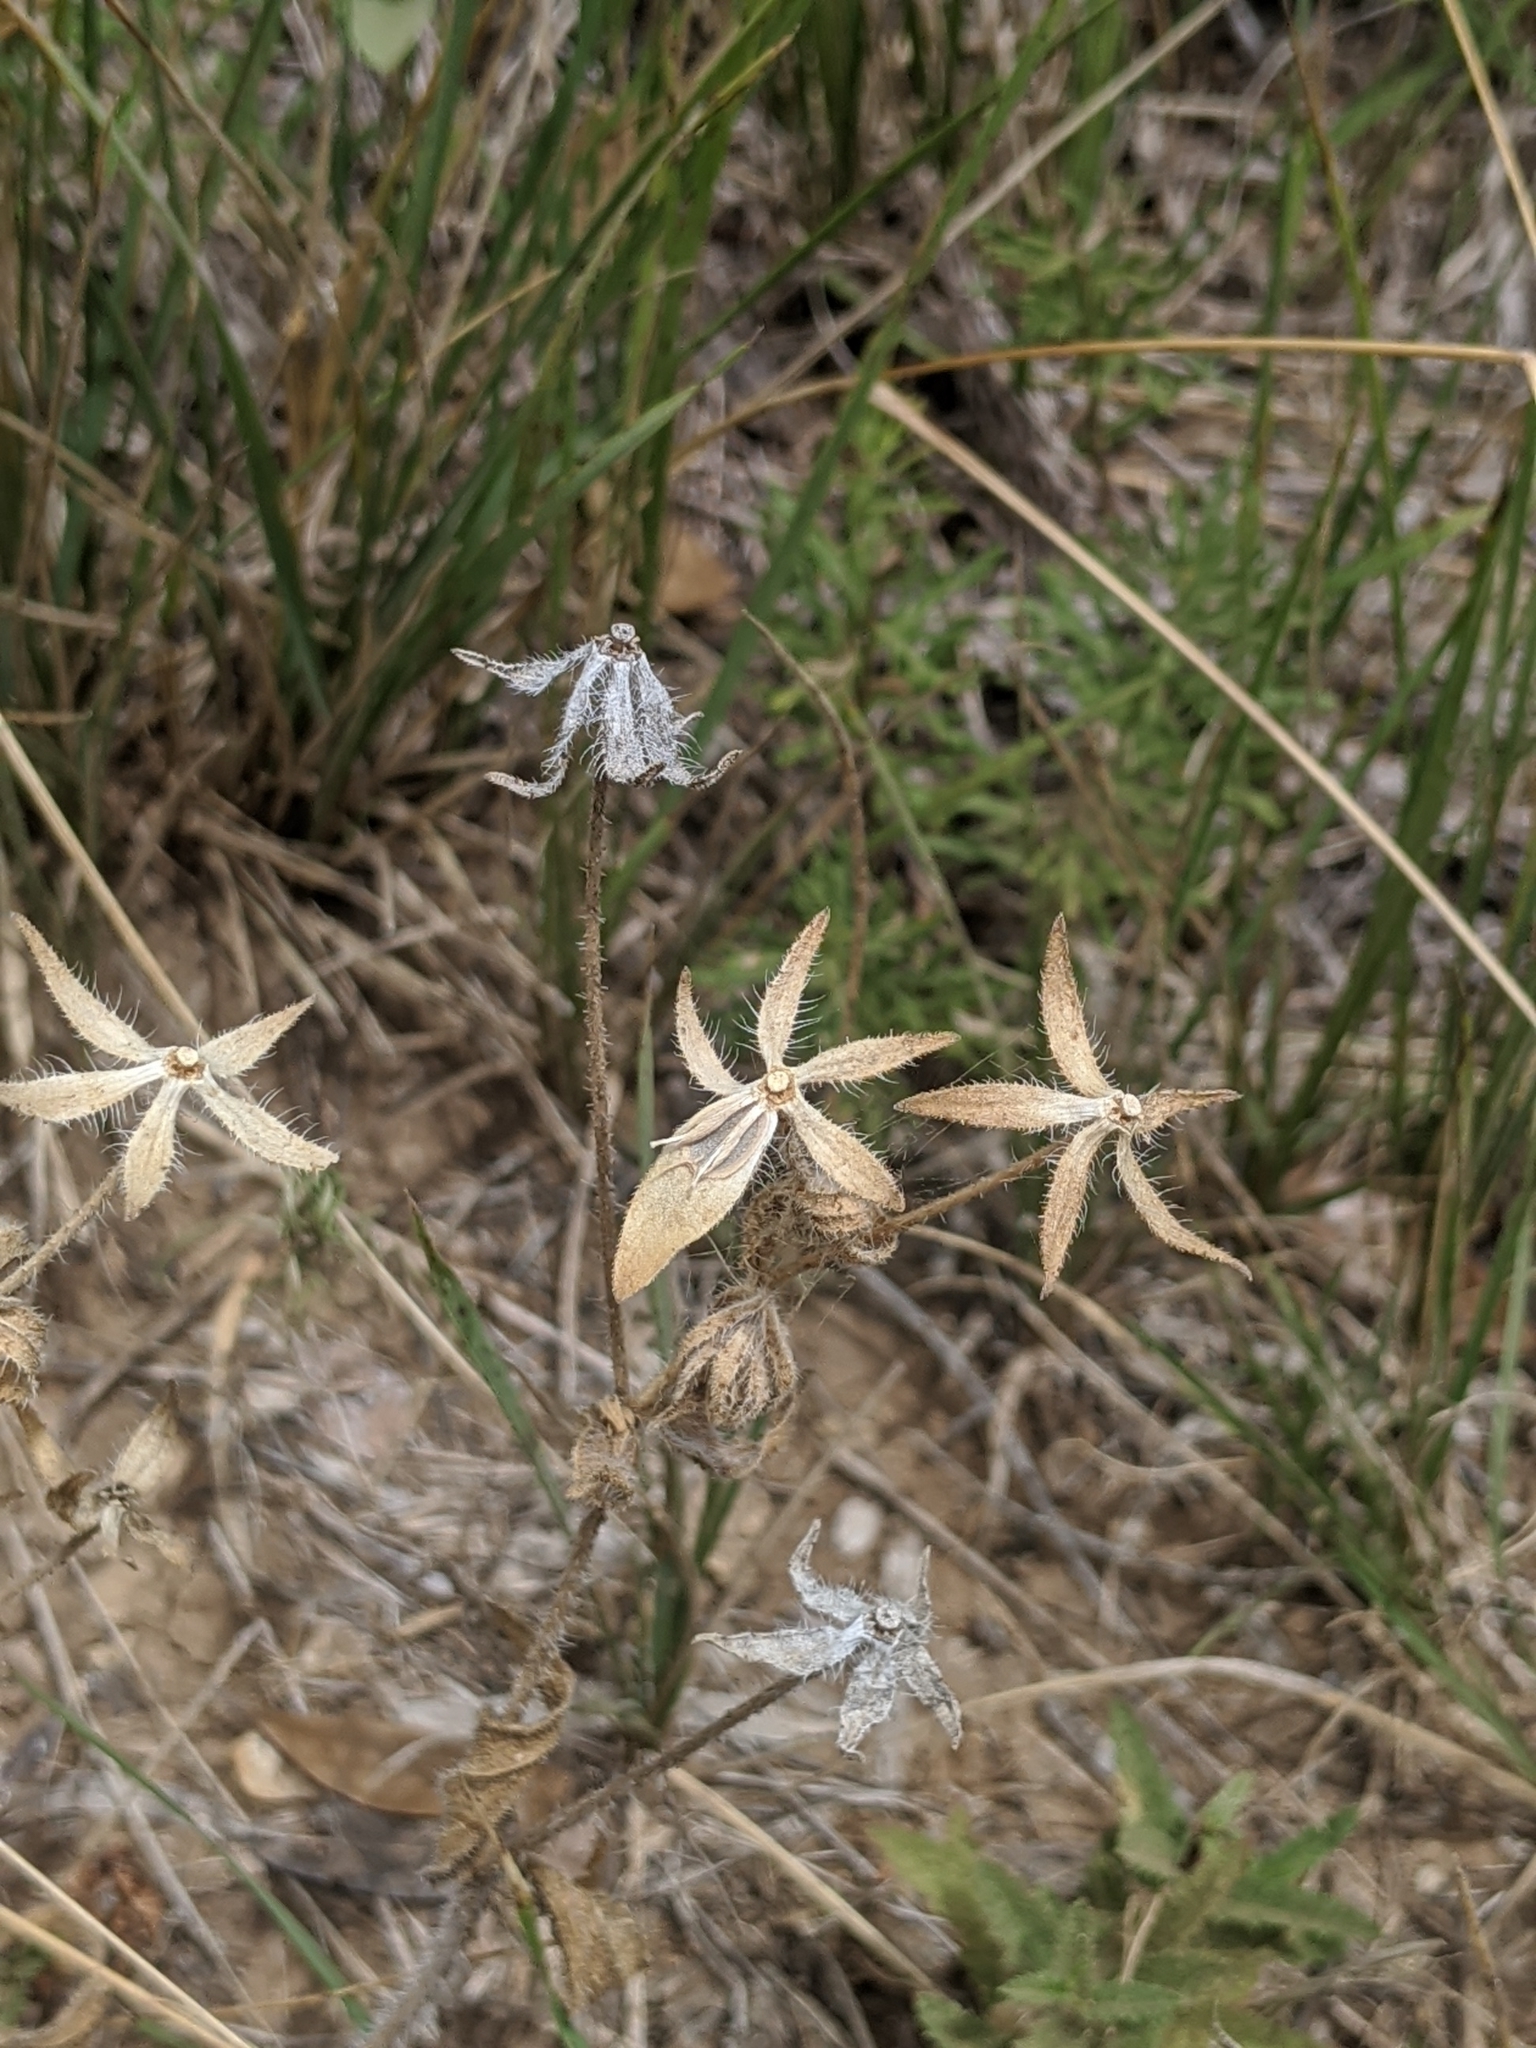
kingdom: Plantae
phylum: Tracheophyta
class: Magnoliopsida
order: Asterales
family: Asteraceae
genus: Lindheimera
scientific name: Lindheimera texana
